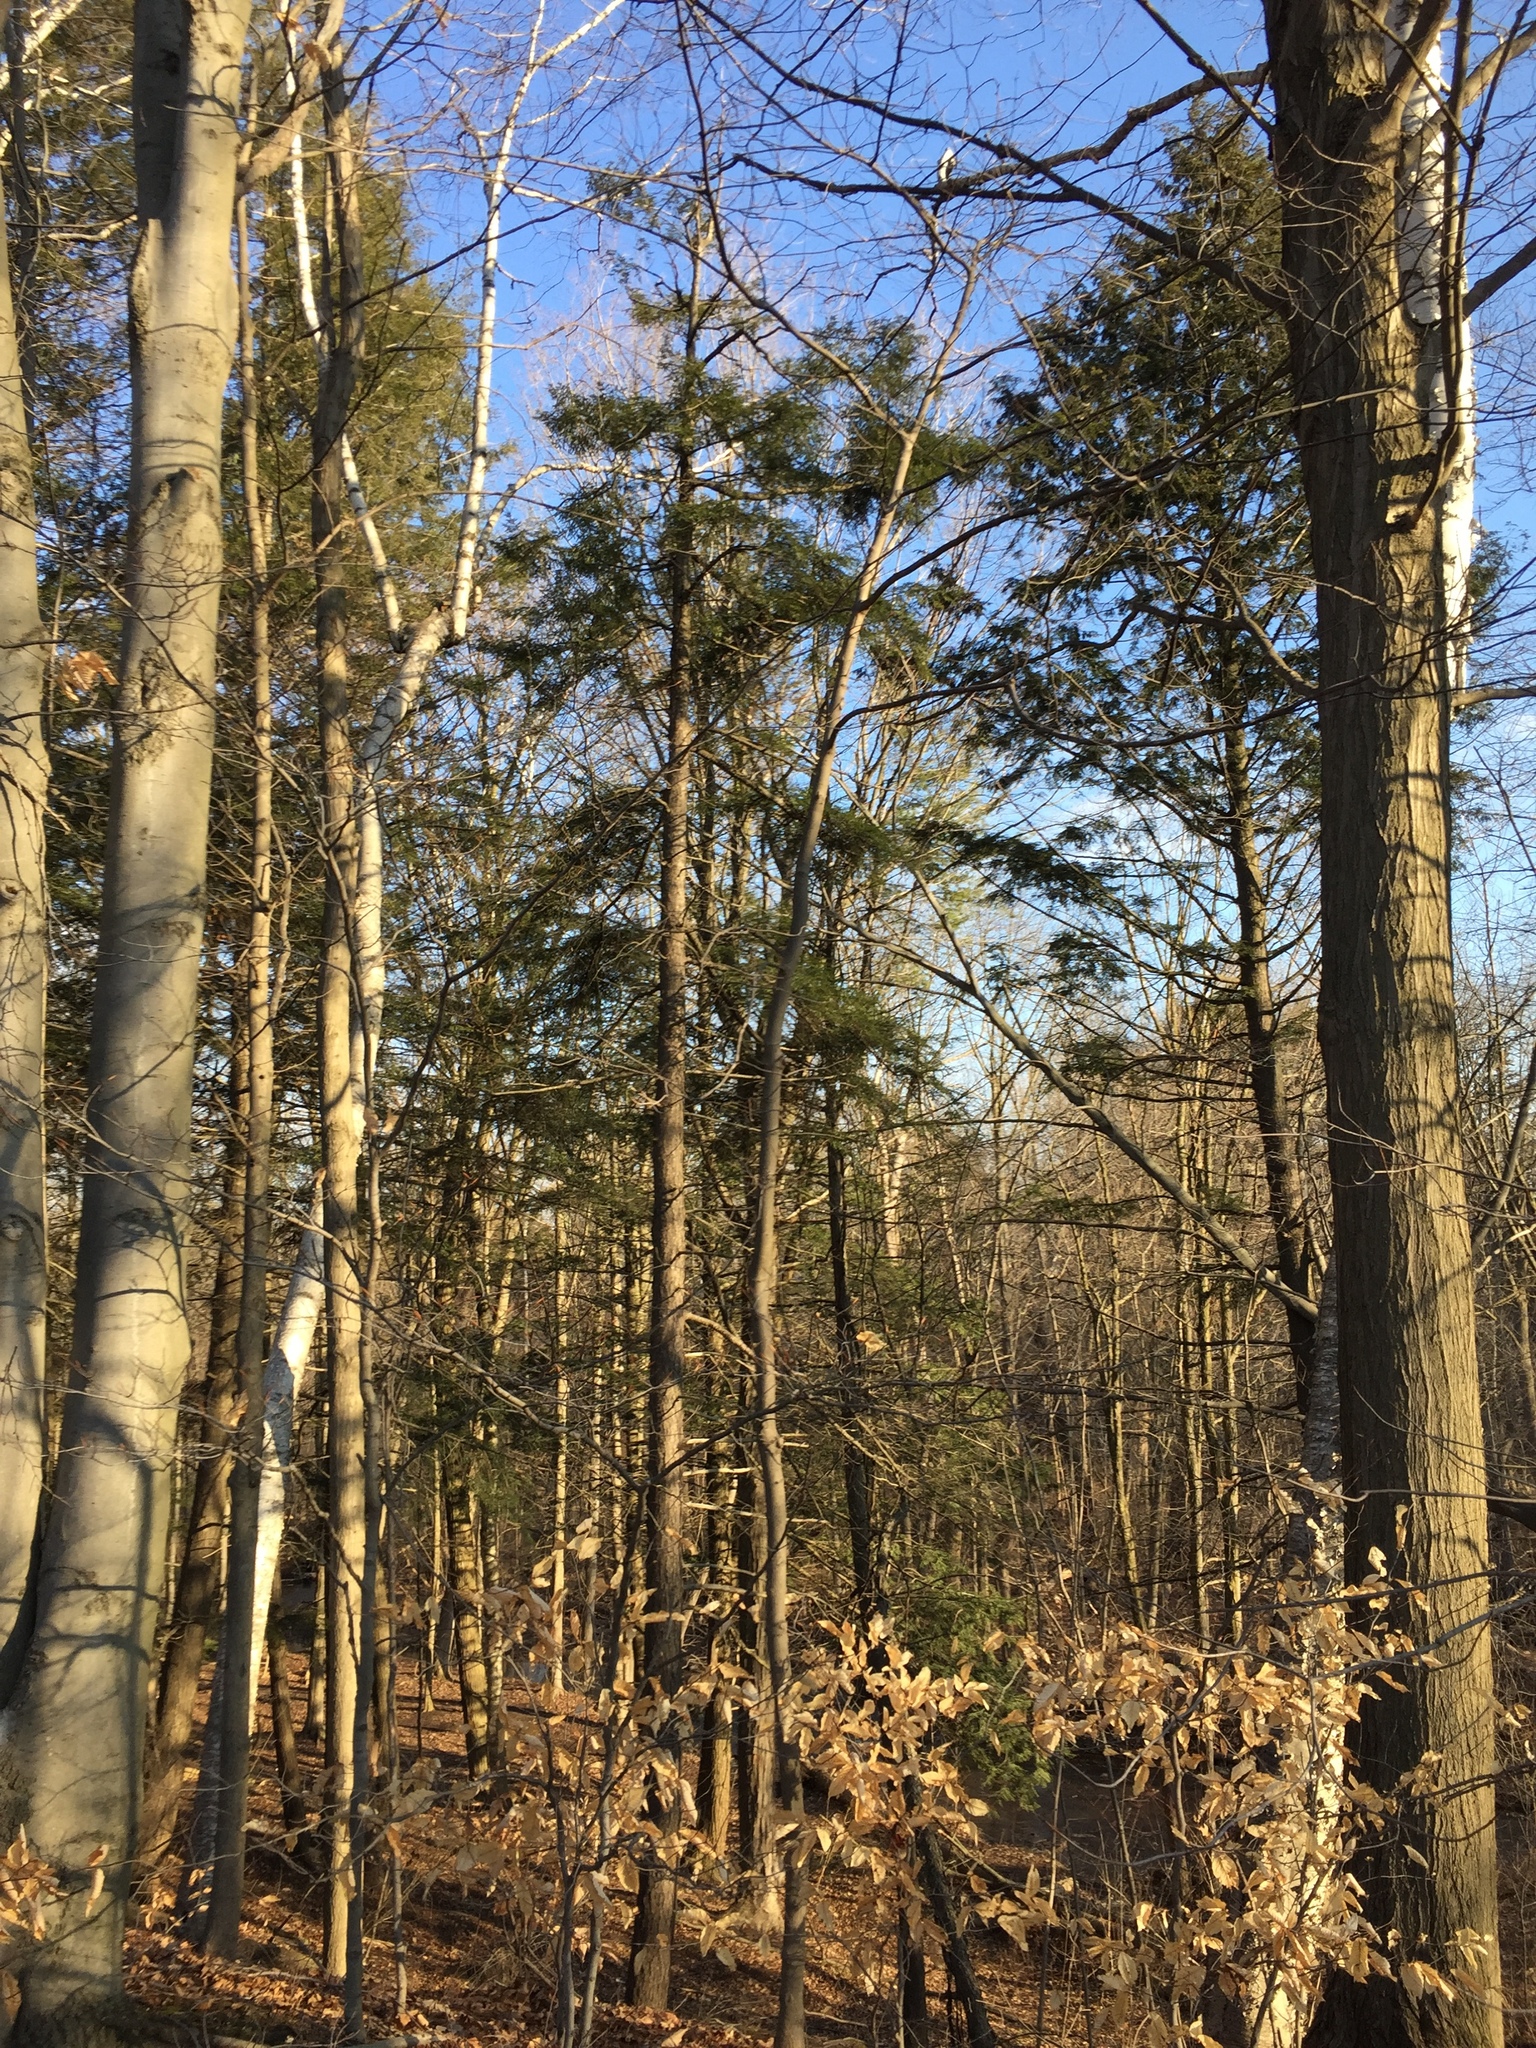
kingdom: Plantae
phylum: Tracheophyta
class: Pinopsida
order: Pinales
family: Pinaceae
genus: Tsuga
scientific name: Tsuga canadensis
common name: Eastern hemlock
